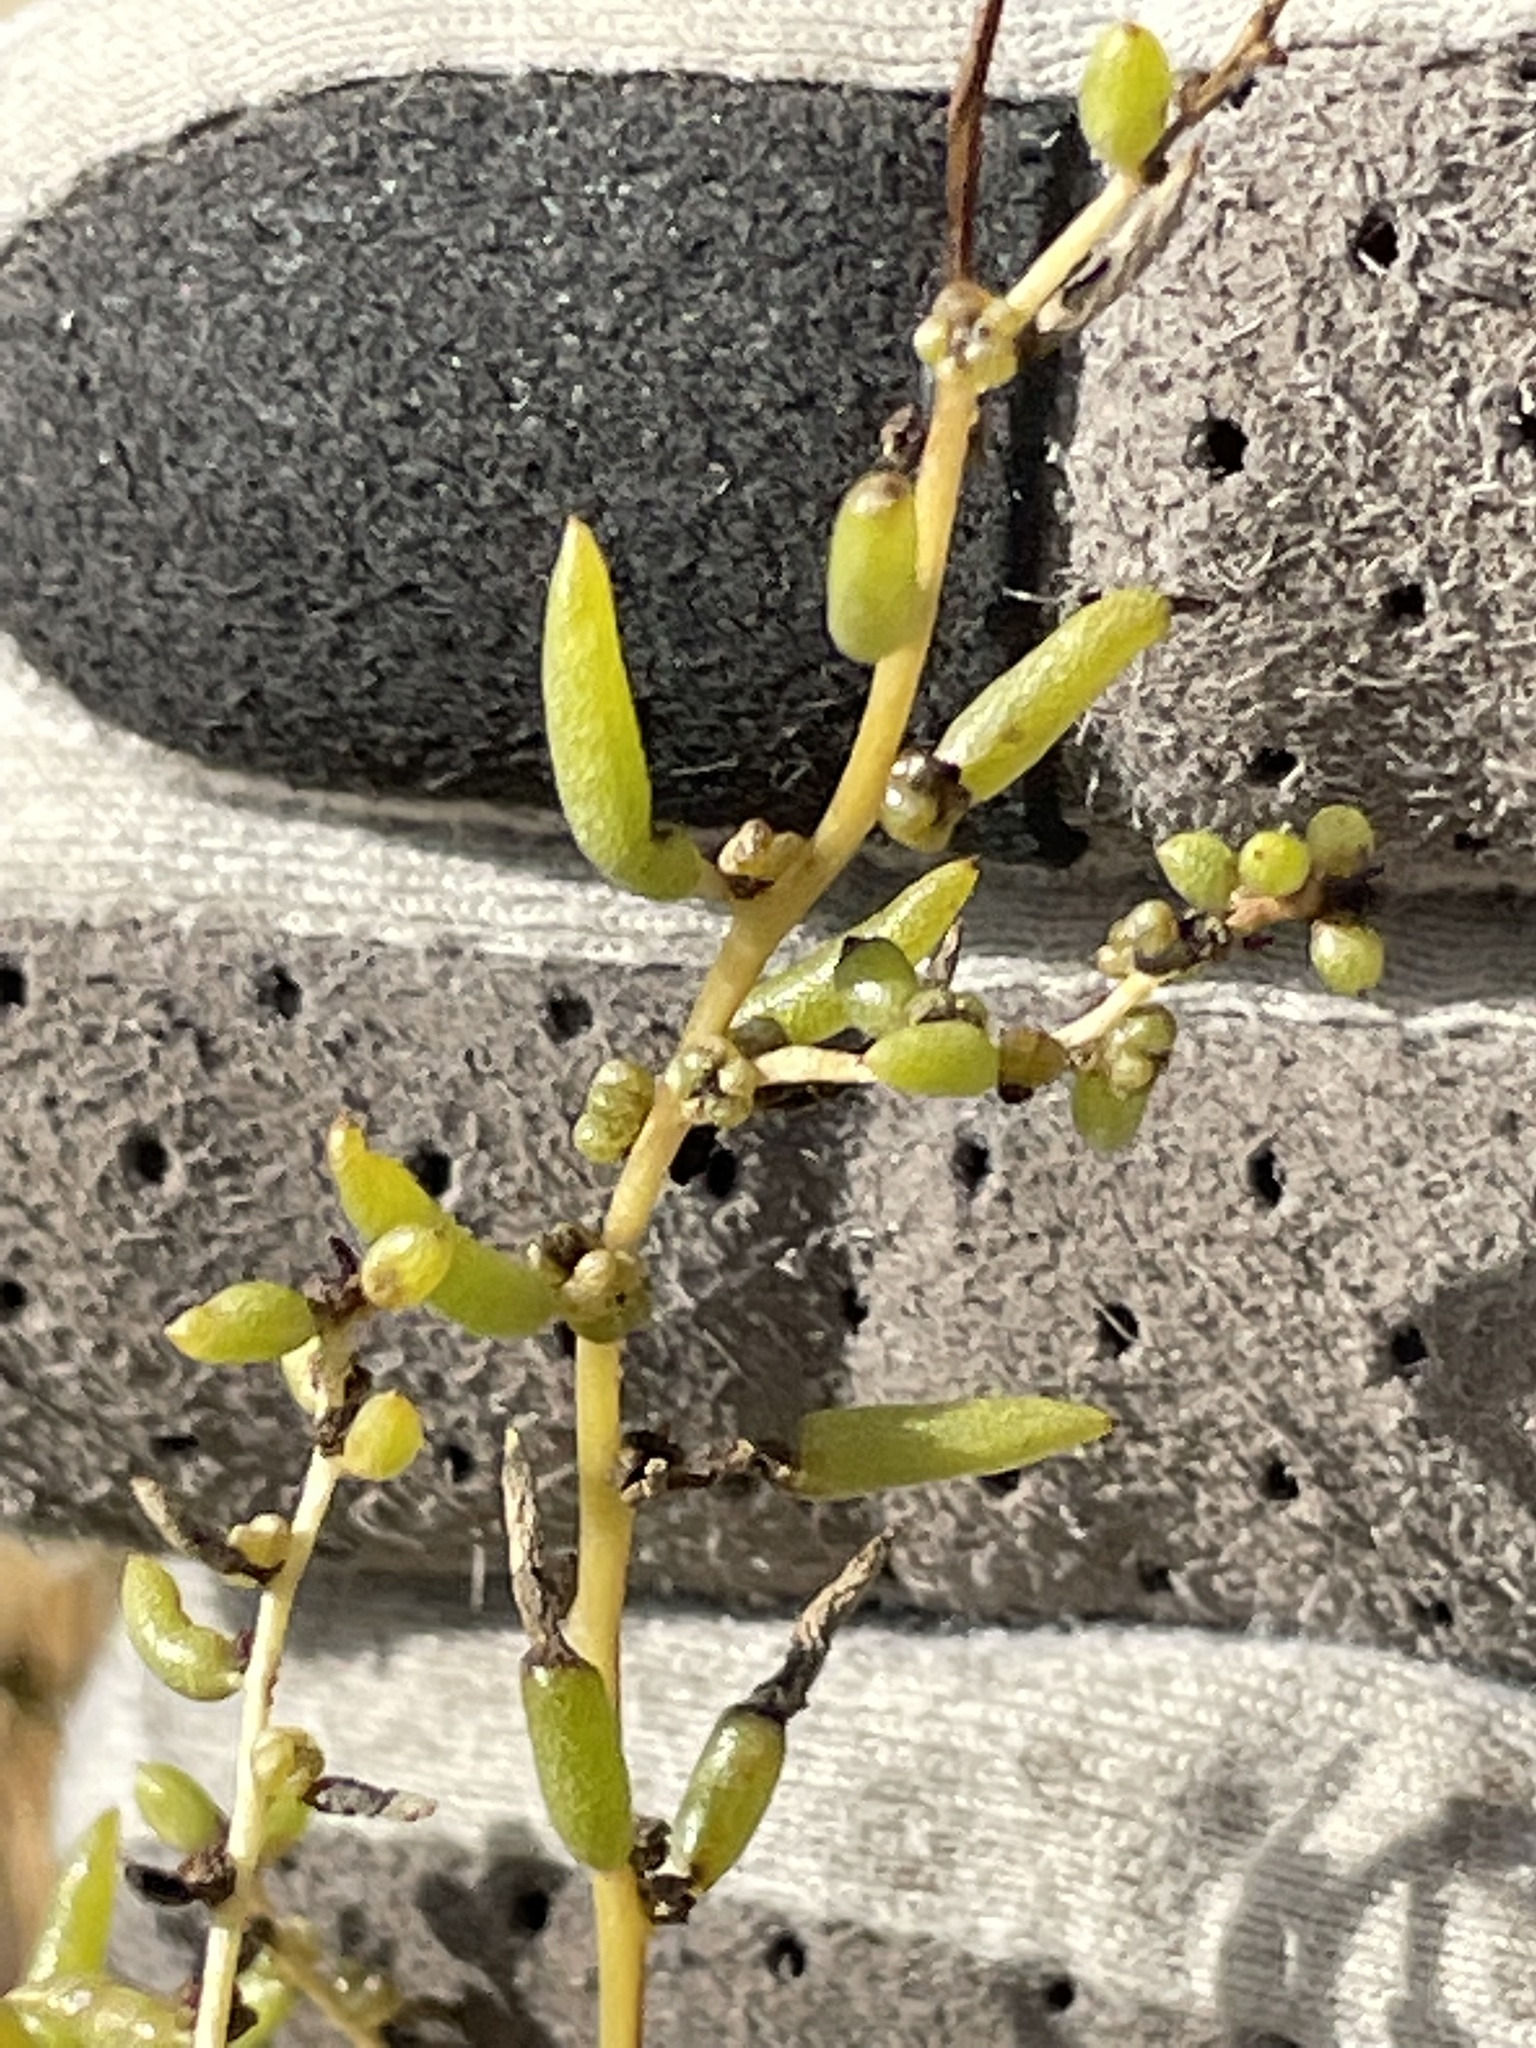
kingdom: Plantae
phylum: Tracheophyta
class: Magnoliopsida
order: Caryophyllales
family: Amaranthaceae
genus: Suaeda
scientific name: Suaeda nigra
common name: Bush seepweed
